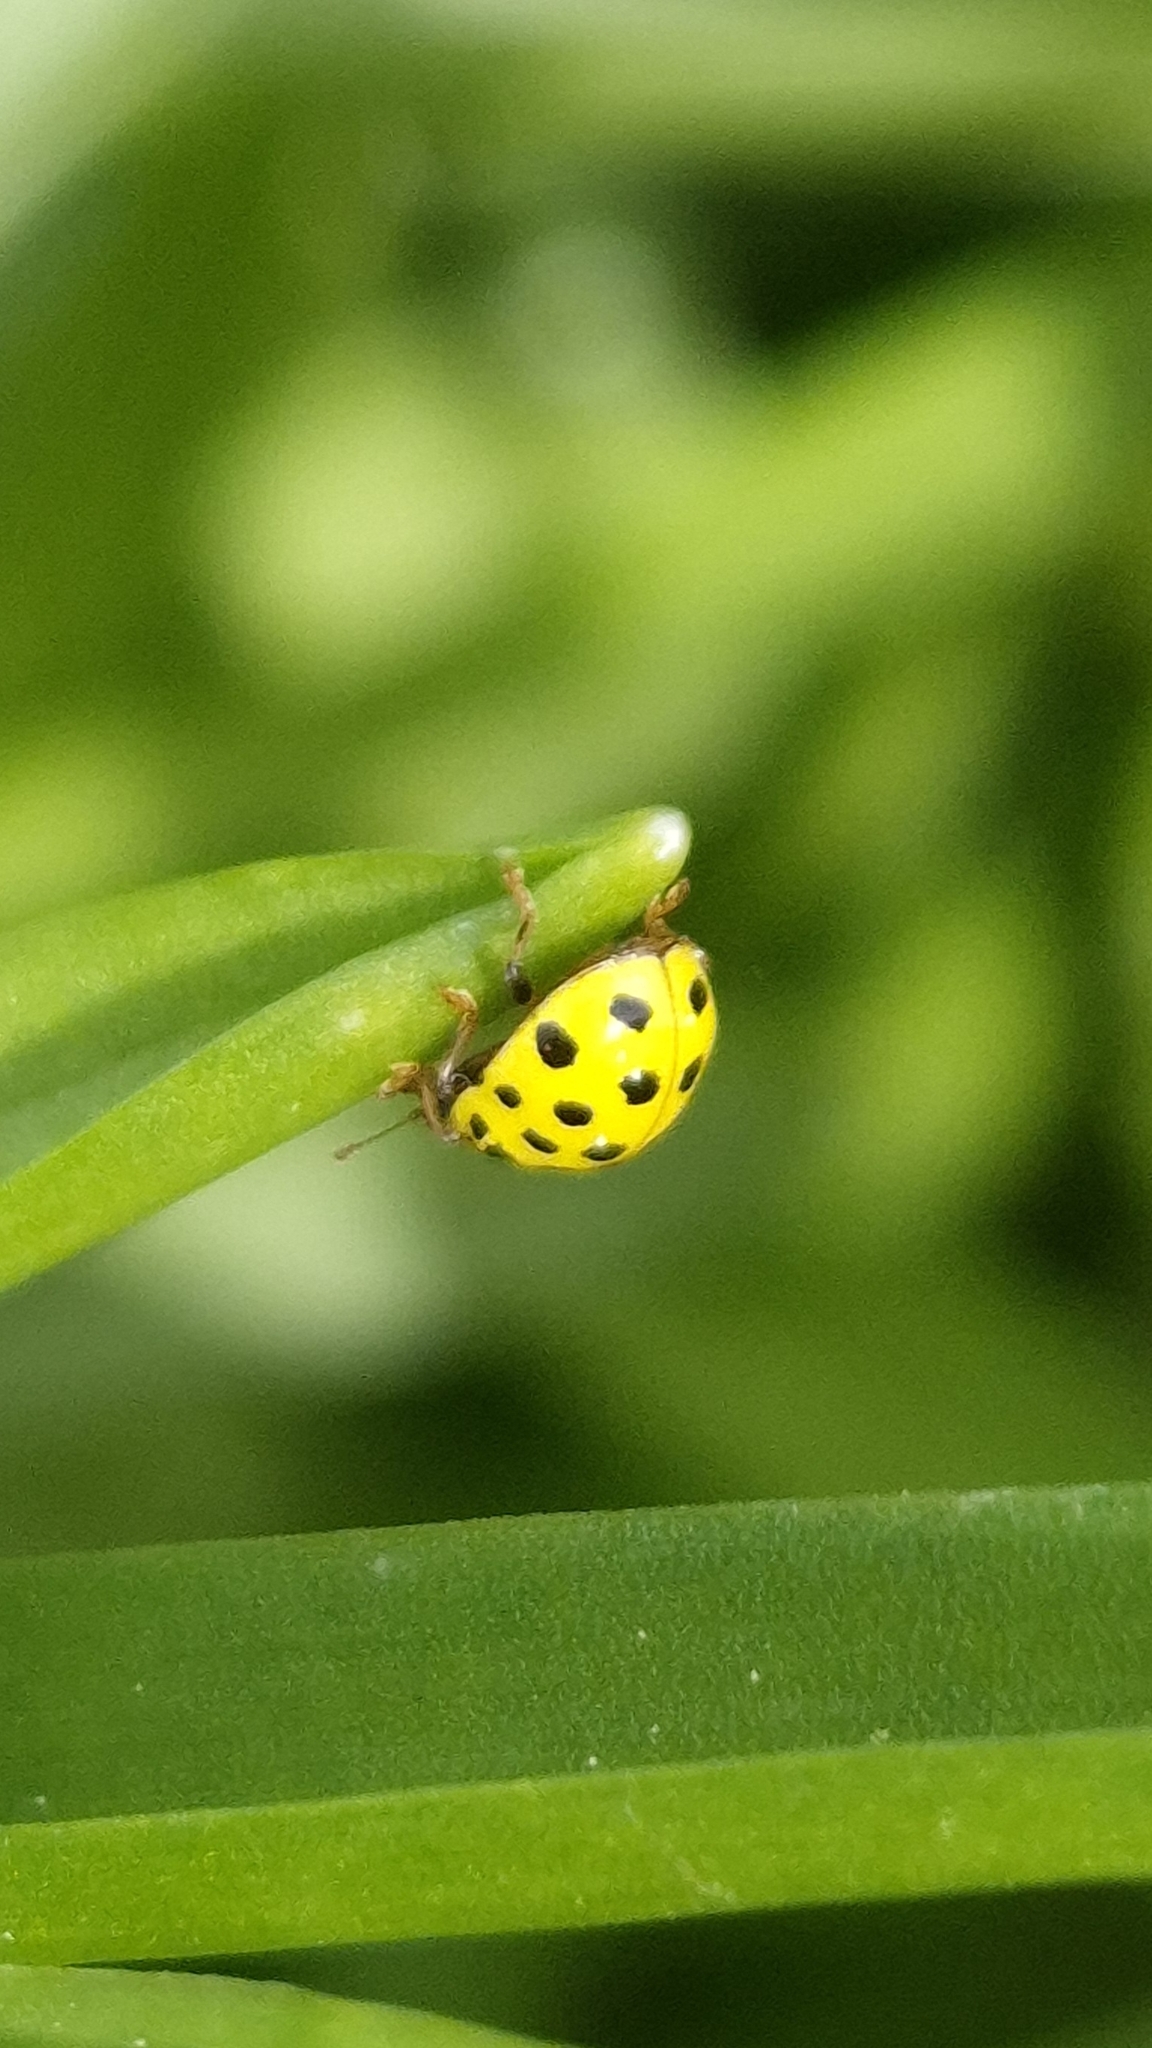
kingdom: Animalia
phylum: Arthropoda
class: Insecta
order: Coleoptera
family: Coccinellidae
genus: Psyllobora
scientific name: Psyllobora vigintiduopunctata
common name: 22-spot ladybird
